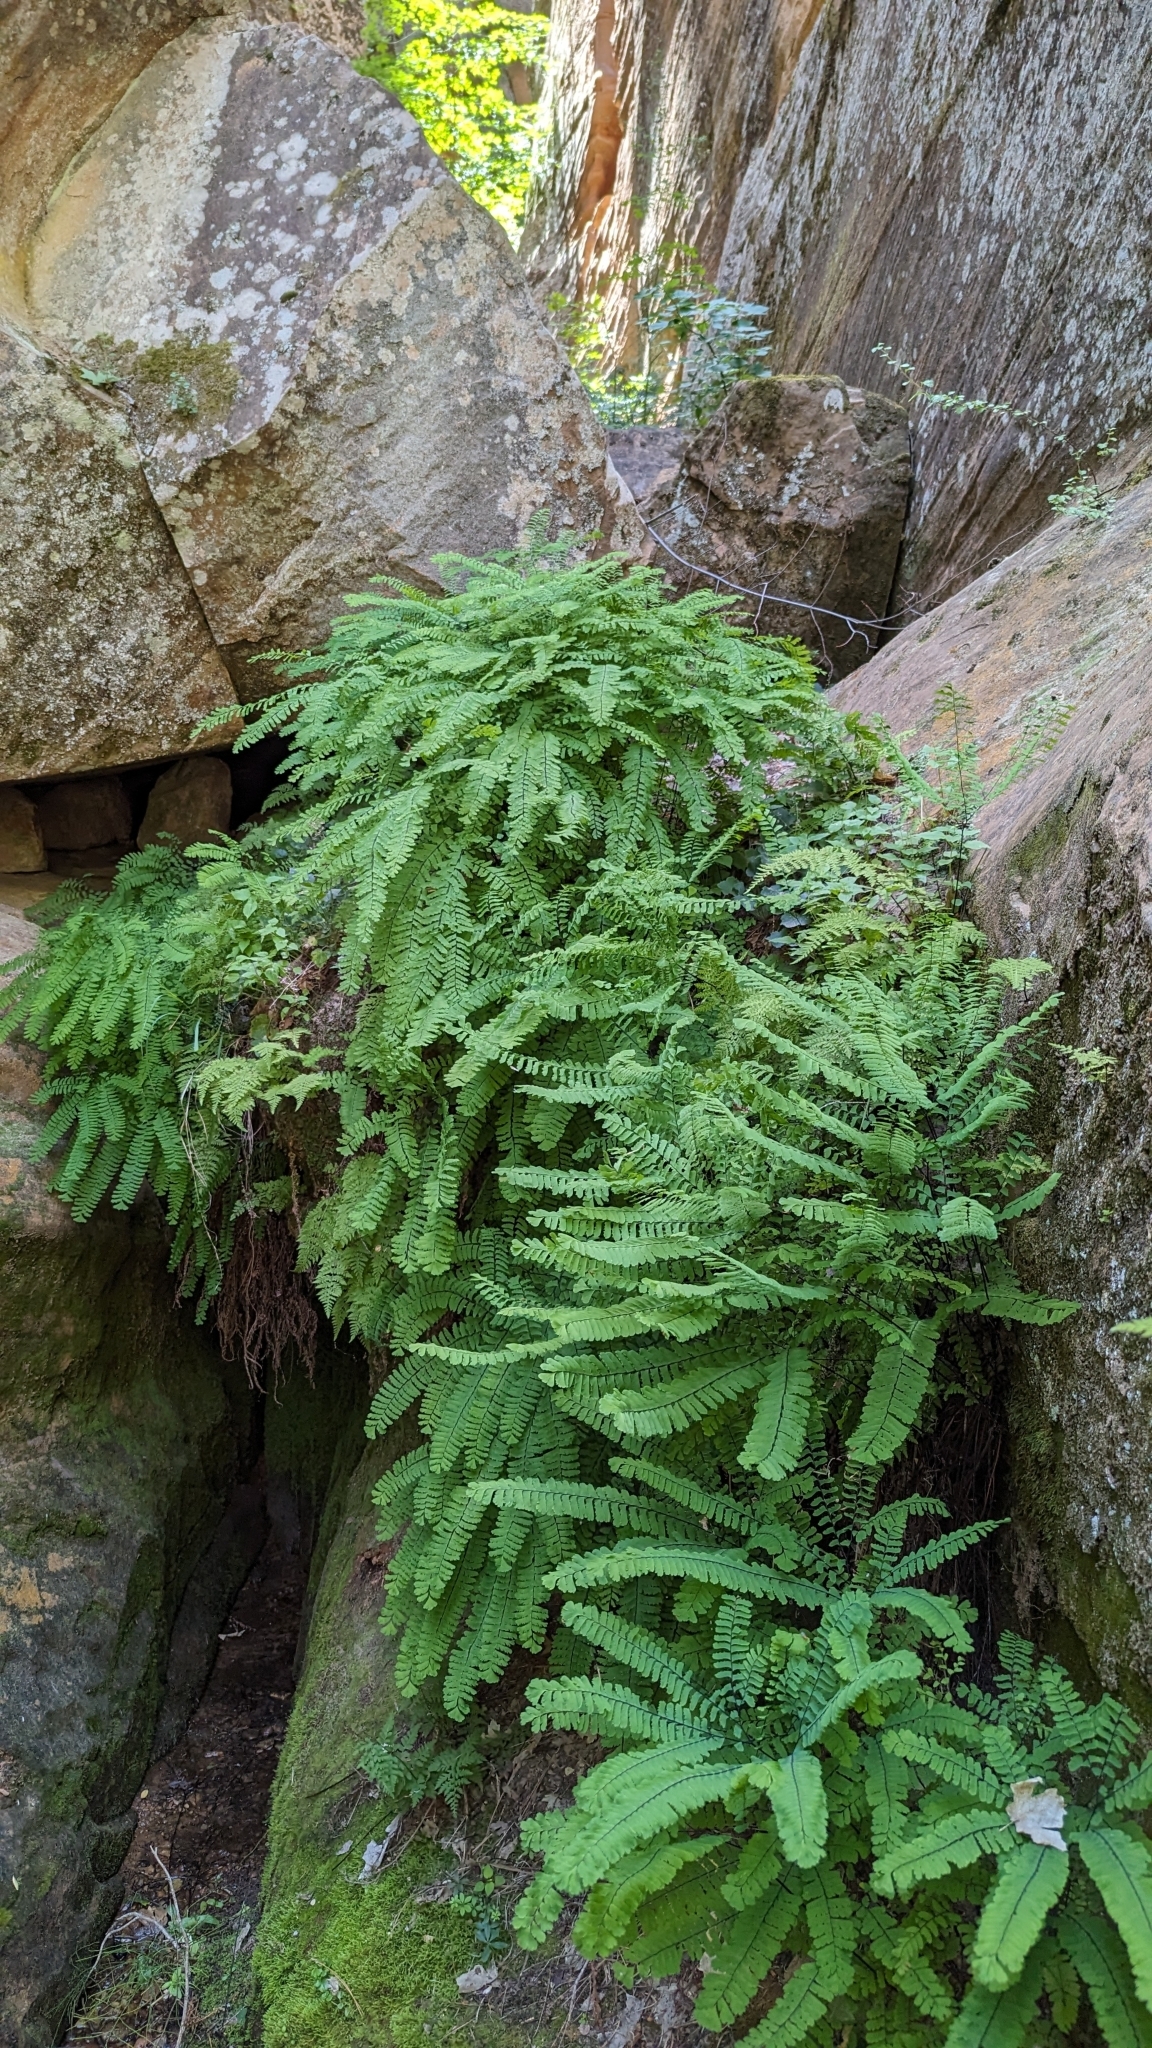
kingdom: Plantae
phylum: Tracheophyta
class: Polypodiopsida
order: Polypodiales
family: Pteridaceae
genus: Adiantum
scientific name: Adiantum aleuticum
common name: Aleutian maidenhair fern
